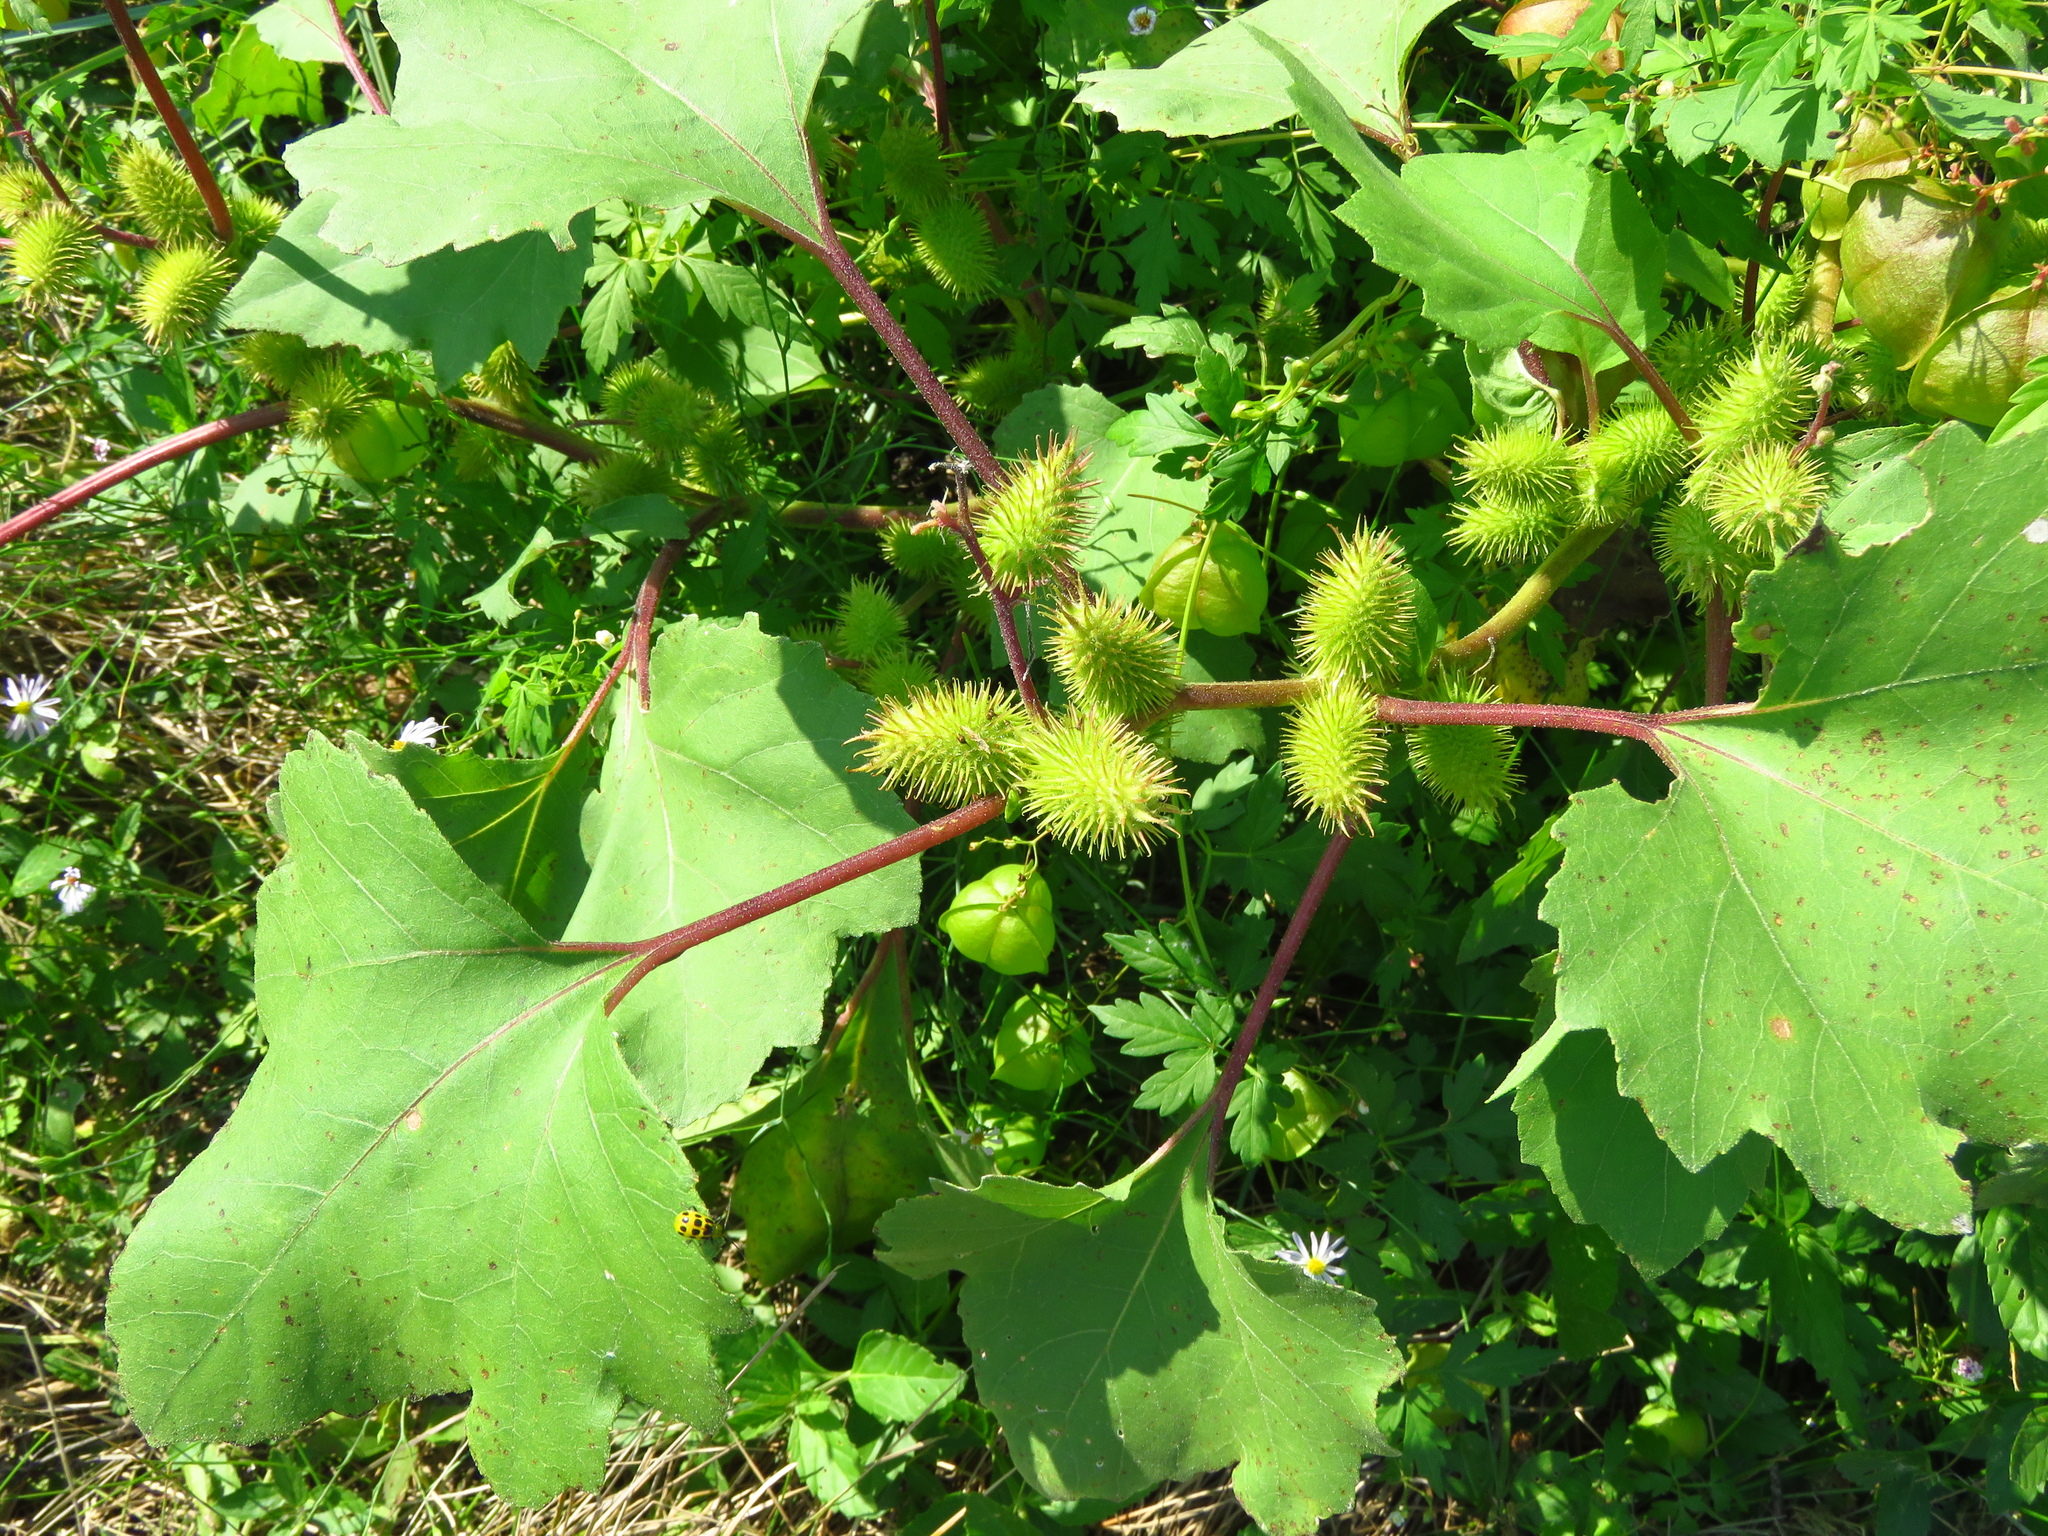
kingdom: Plantae
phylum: Tracheophyta
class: Magnoliopsida
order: Asterales
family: Asteraceae
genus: Xanthium
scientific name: Xanthium strumarium
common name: Rough cocklebur
